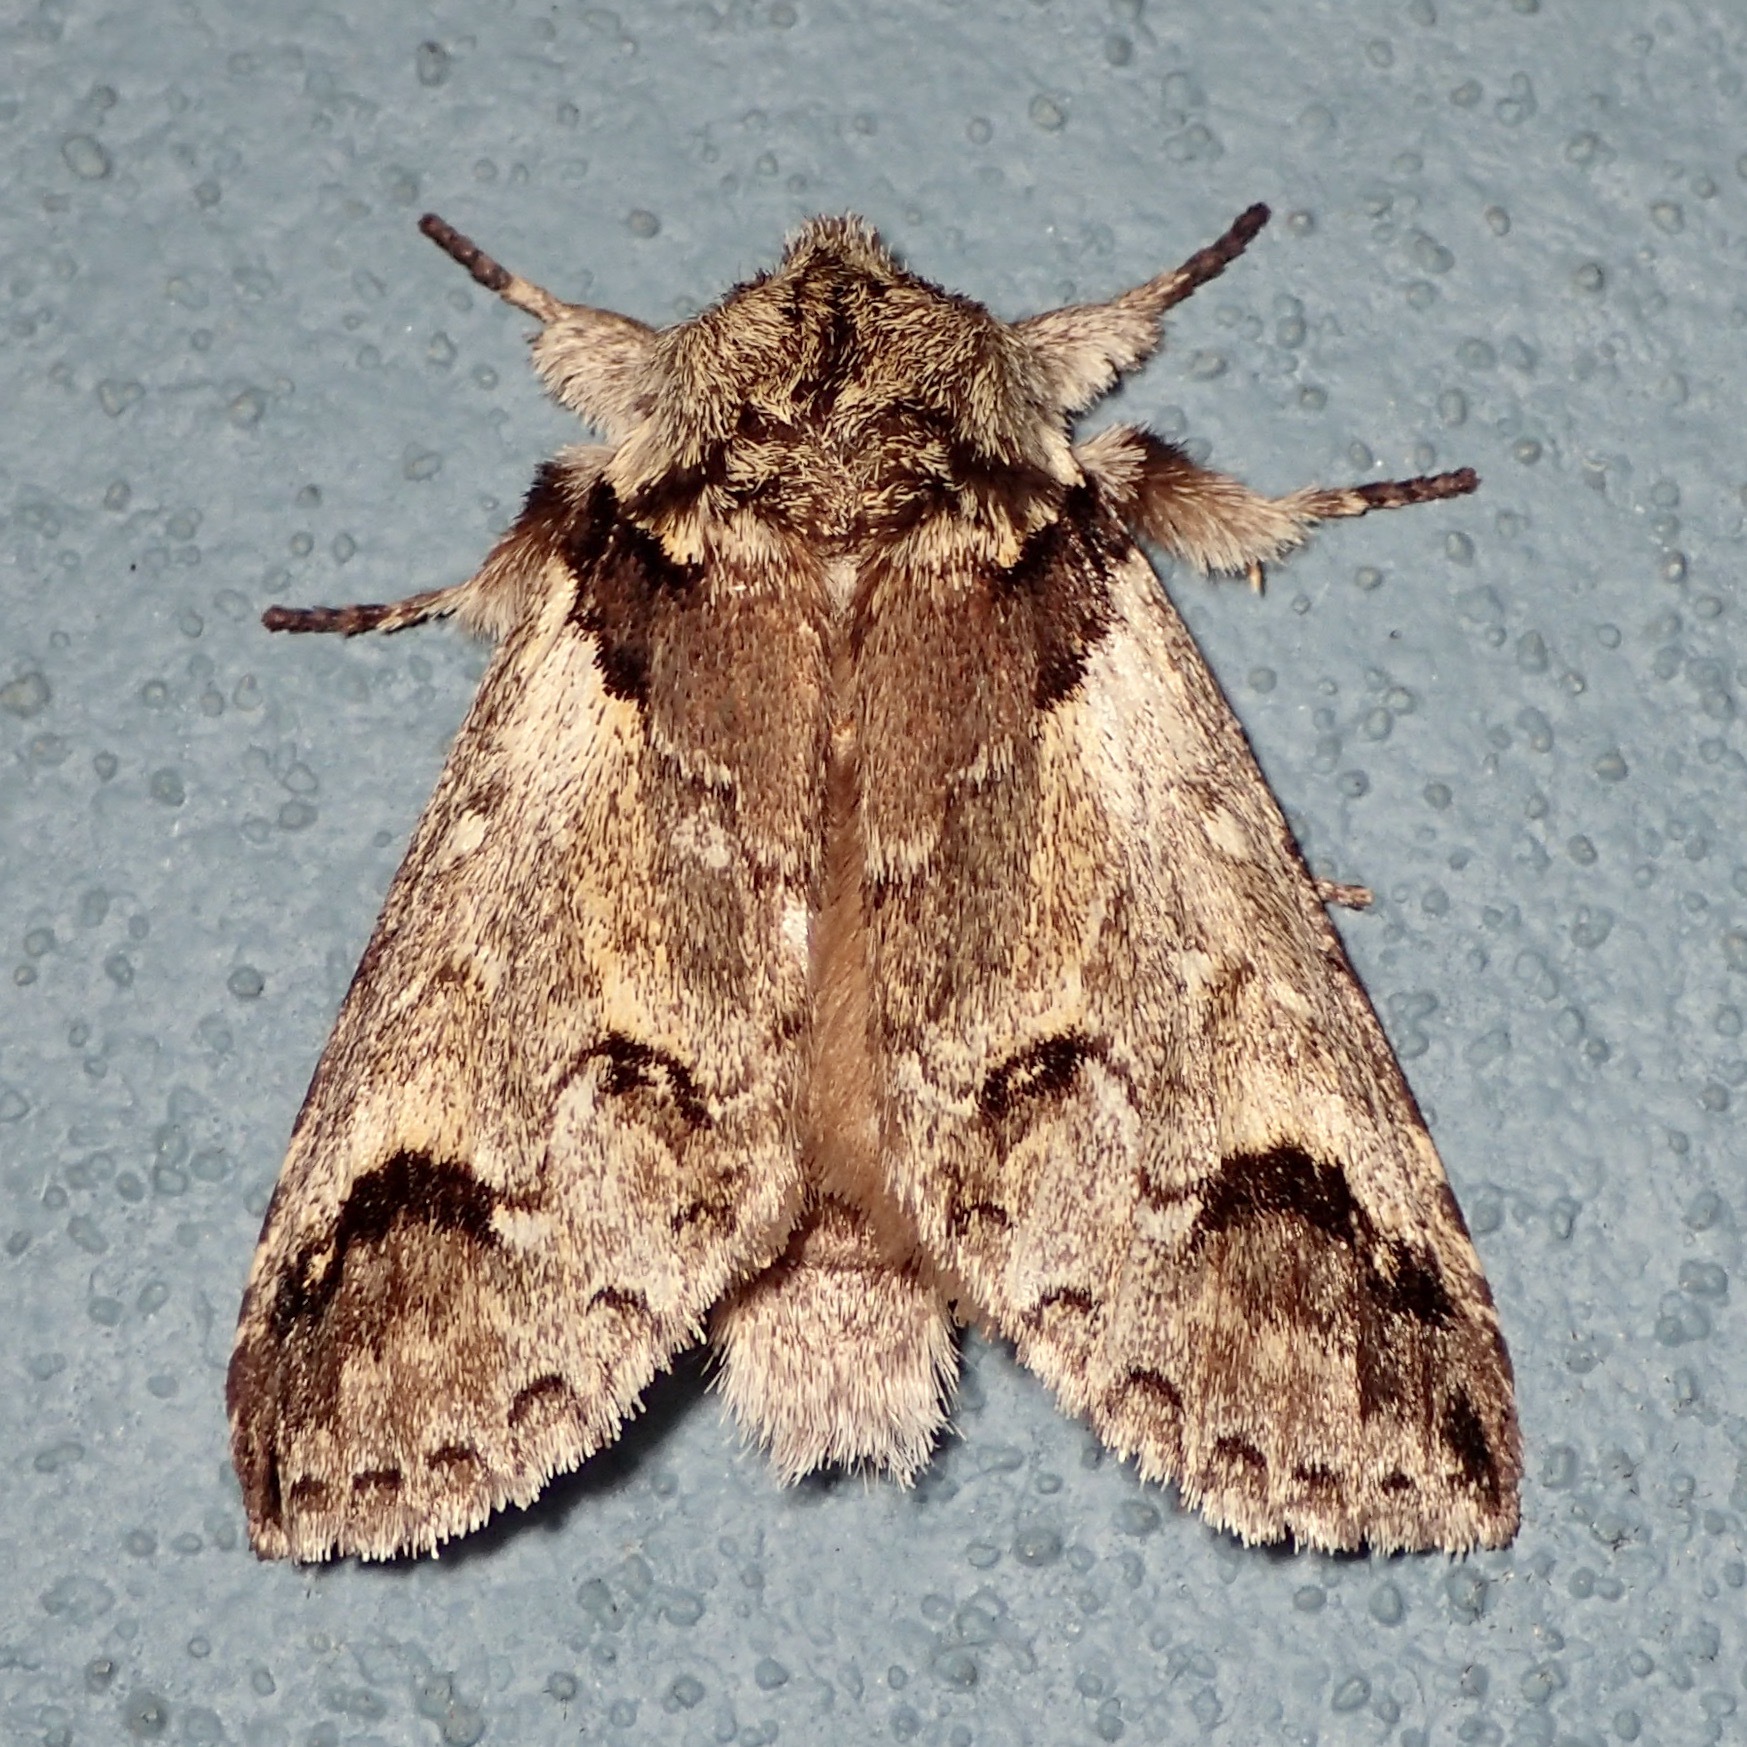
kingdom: Animalia
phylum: Arthropoda
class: Insecta
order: Lepidoptera
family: Notodontidae
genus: Chadisra
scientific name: Chadisra Antithemerastis acrobela
